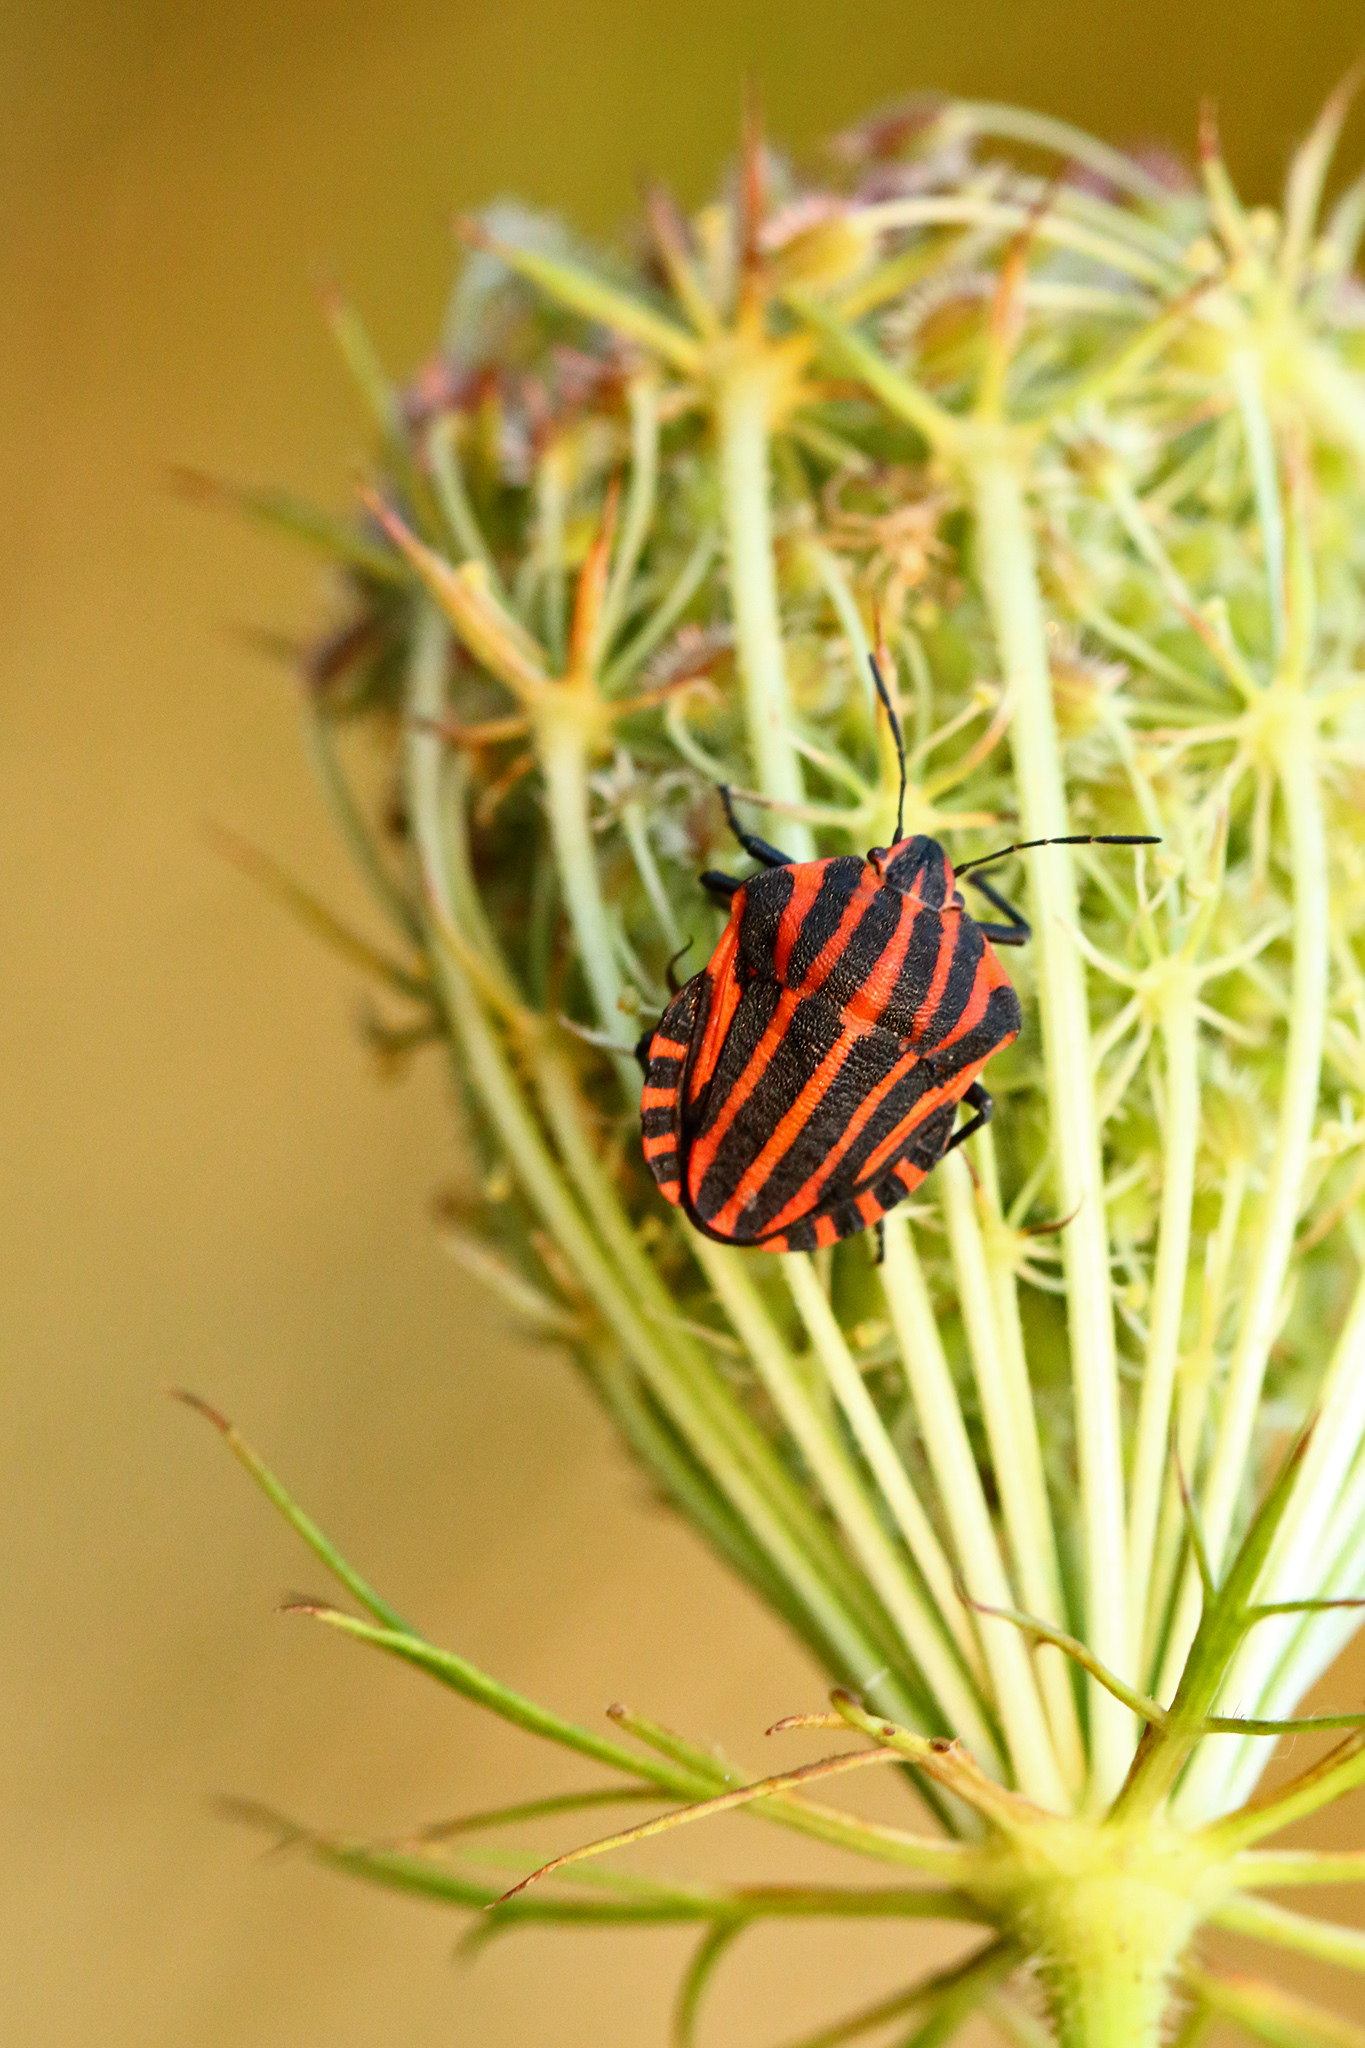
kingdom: Animalia
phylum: Arthropoda
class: Insecta
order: Hemiptera
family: Pentatomidae
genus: Graphosoma
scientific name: Graphosoma italicum
